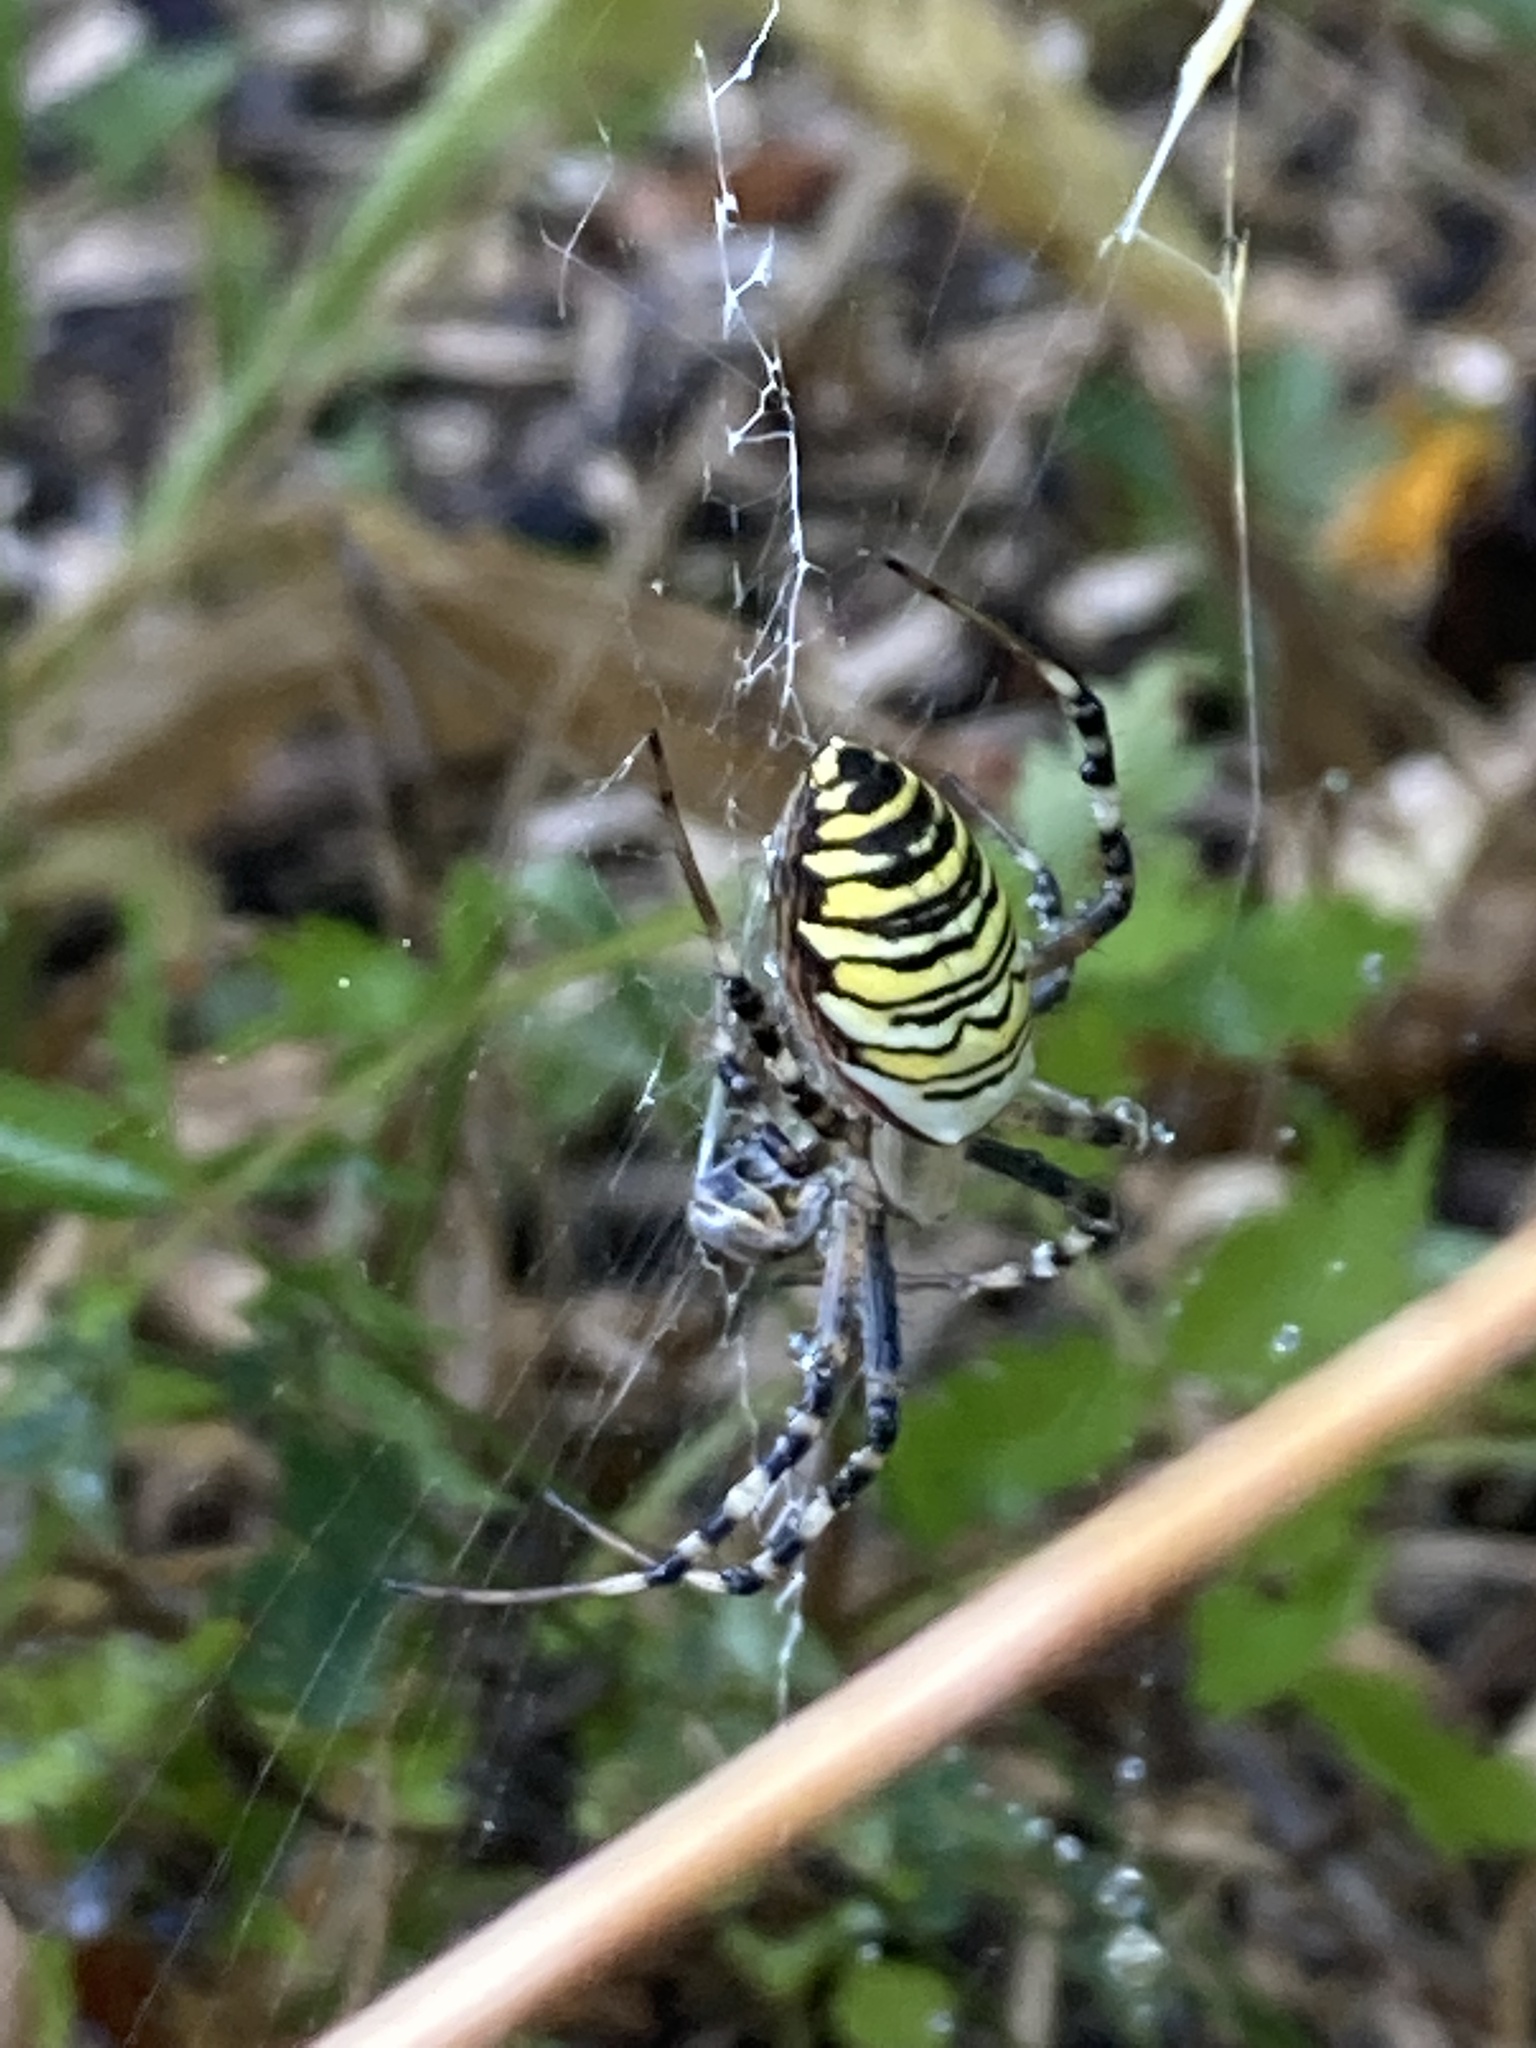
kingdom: Animalia
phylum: Arthropoda
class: Arachnida
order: Araneae
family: Araneidae
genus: Argiope
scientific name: Argiope bruennichi
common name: Wasp spider
